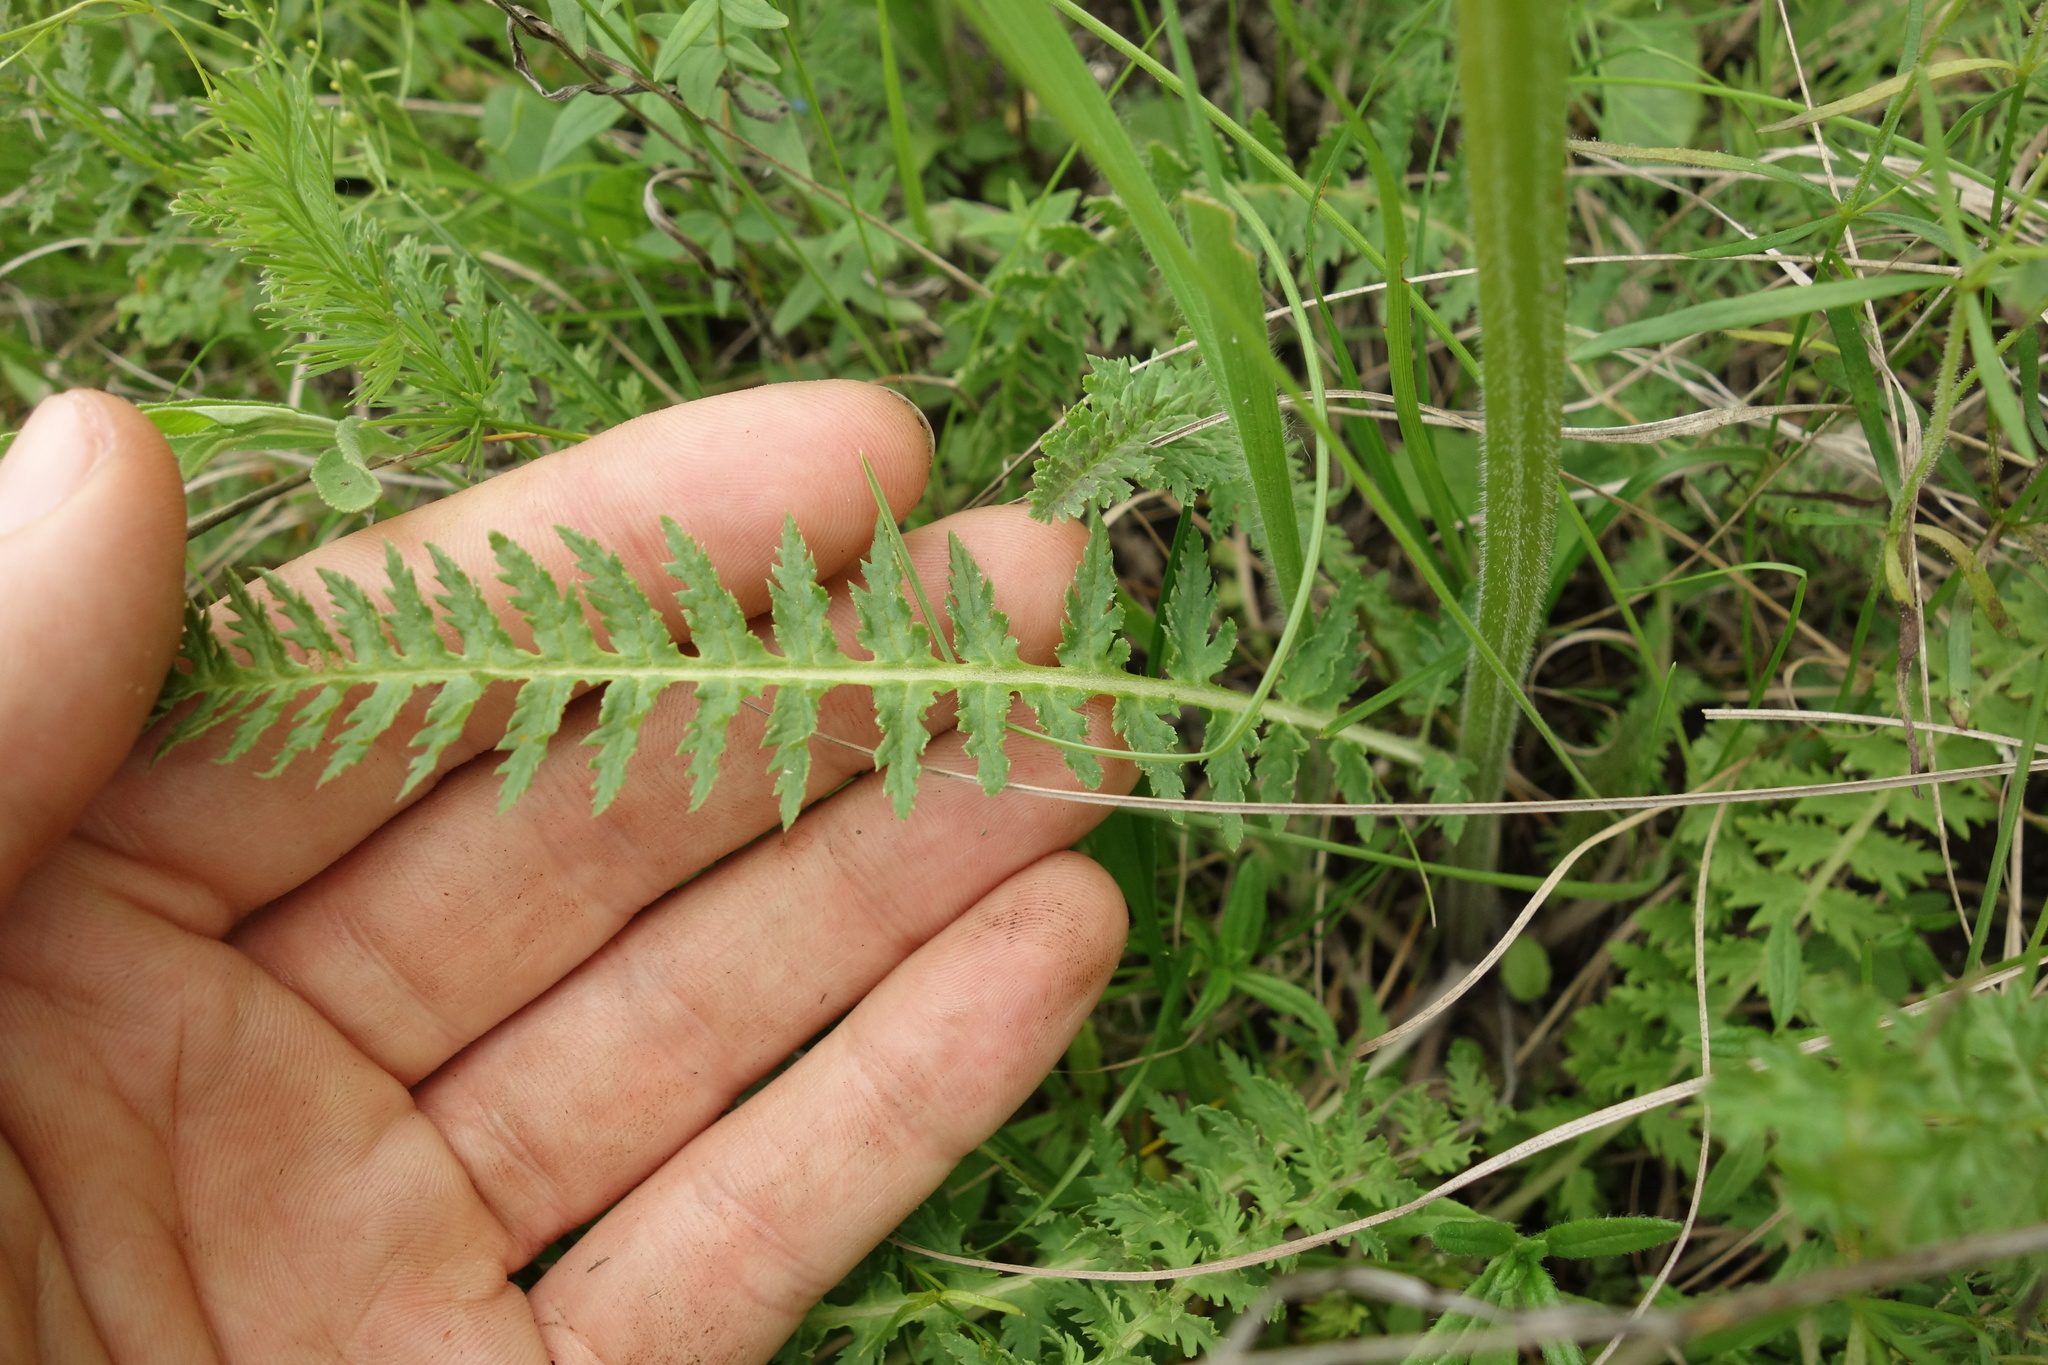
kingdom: Plantae
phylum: Tracheophyta
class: Magnoliopsida
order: Lamiales
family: Orobanchaceae
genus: Pedicularis
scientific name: Pedicularis kaufmannii
